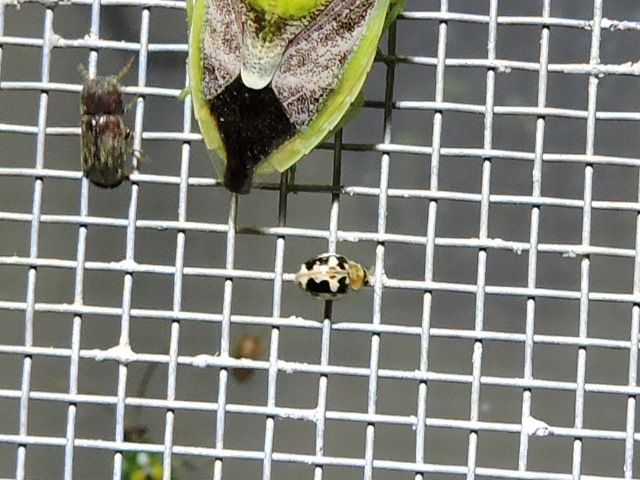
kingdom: Animalia
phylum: Arthropoda
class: Insecta
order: Coleoptera
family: Coccinellidae
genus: Psyllobora
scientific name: Psyllobora renifer
